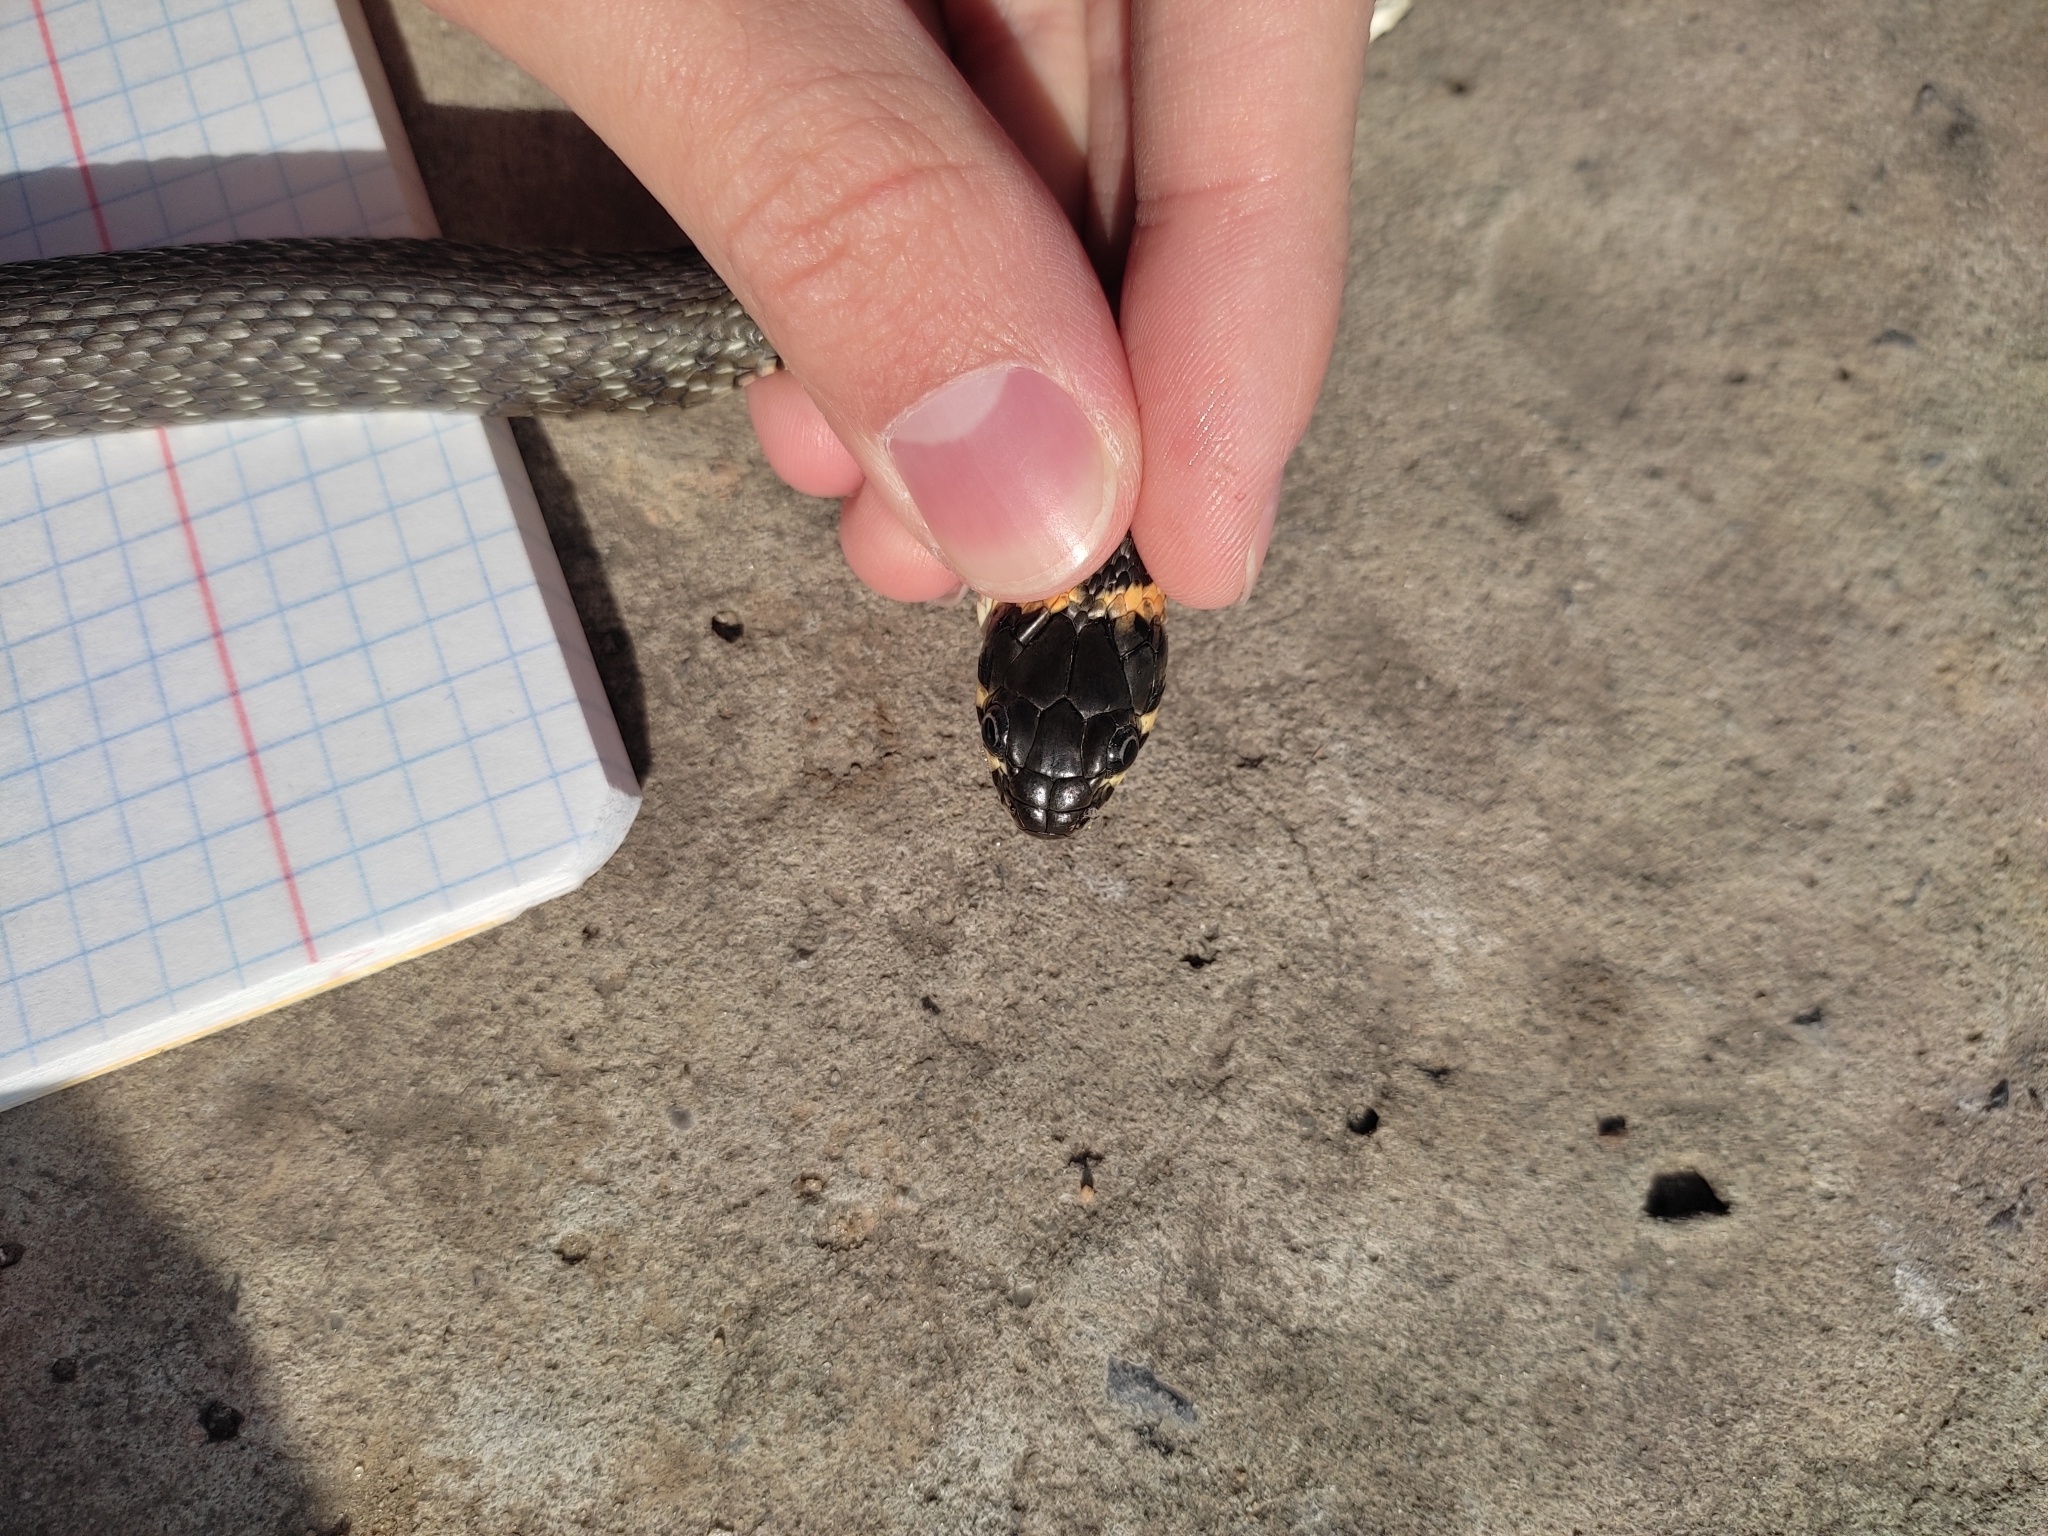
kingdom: Animalia
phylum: Chordata
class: Squamata
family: Colubridae
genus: Natrix
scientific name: Natrix natrix
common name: Grass snake
